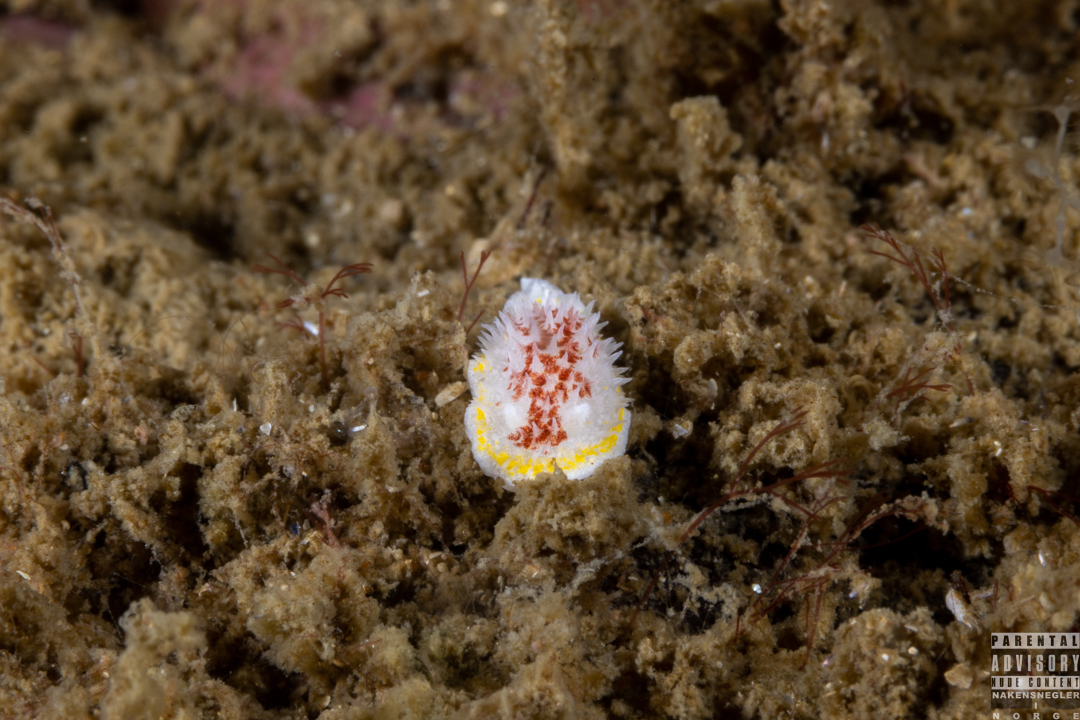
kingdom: Animalia
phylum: Mollusca
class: Gastropoda
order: Nudibranchia
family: Calycidorididae
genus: Diaphorodoris
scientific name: Diaphorodoris luteocincta
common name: Fried egg nudibranch
